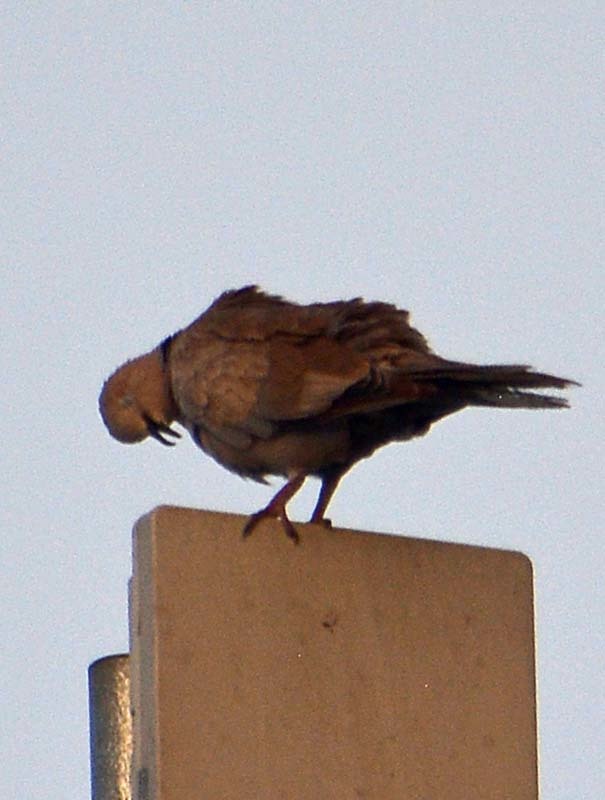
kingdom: Animalia
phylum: Chordata
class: Aves
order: Columbiformes
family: Columbidae
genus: Streptopelia
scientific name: Streptopelia decaocto
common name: Eurasian collared dove
